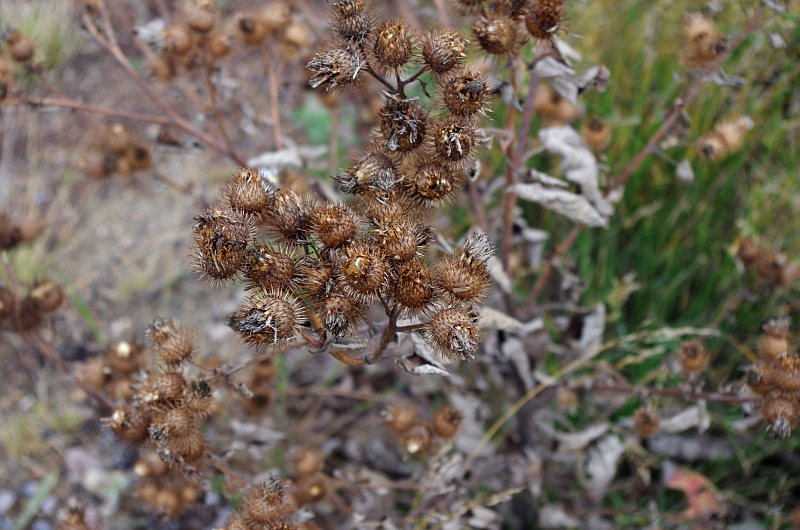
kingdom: Plantae
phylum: Tracheophyta
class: Magnoliopsida
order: Asterales
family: Asteraceae
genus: Arctium
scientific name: Arctium tomentosum
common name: Woolly burdock
